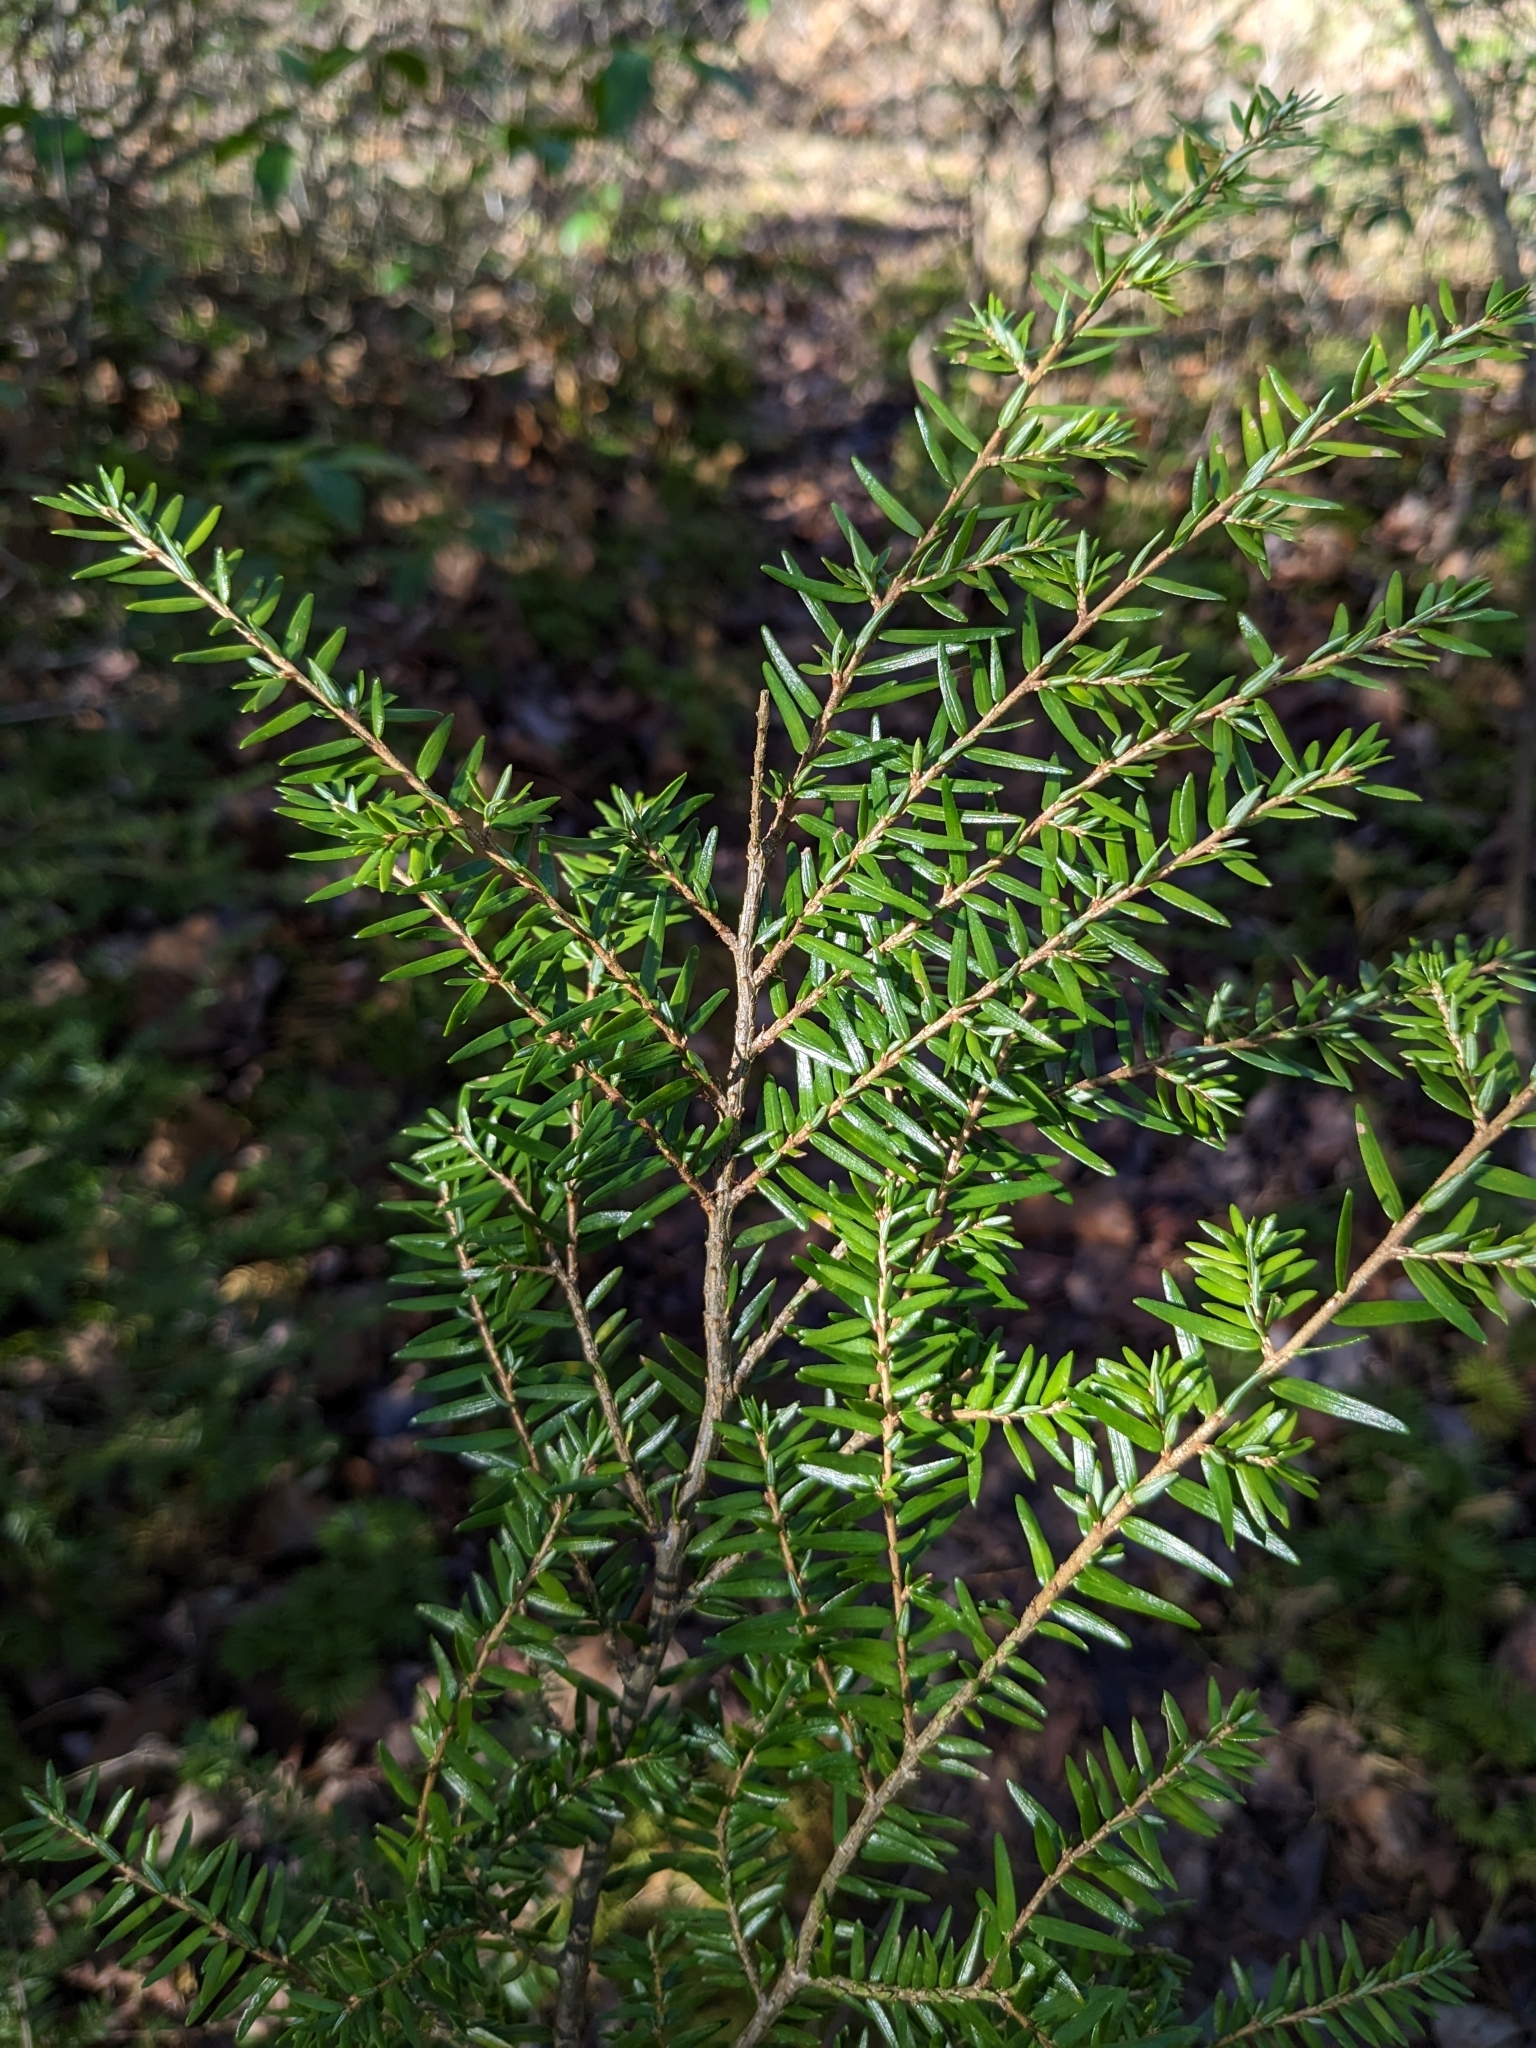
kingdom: Plantae
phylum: Tracheophyta
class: Pinopsida
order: Pinales
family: Pinaceae
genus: Tsuga
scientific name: Tsuga canadensis
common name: Eastern hemlock
